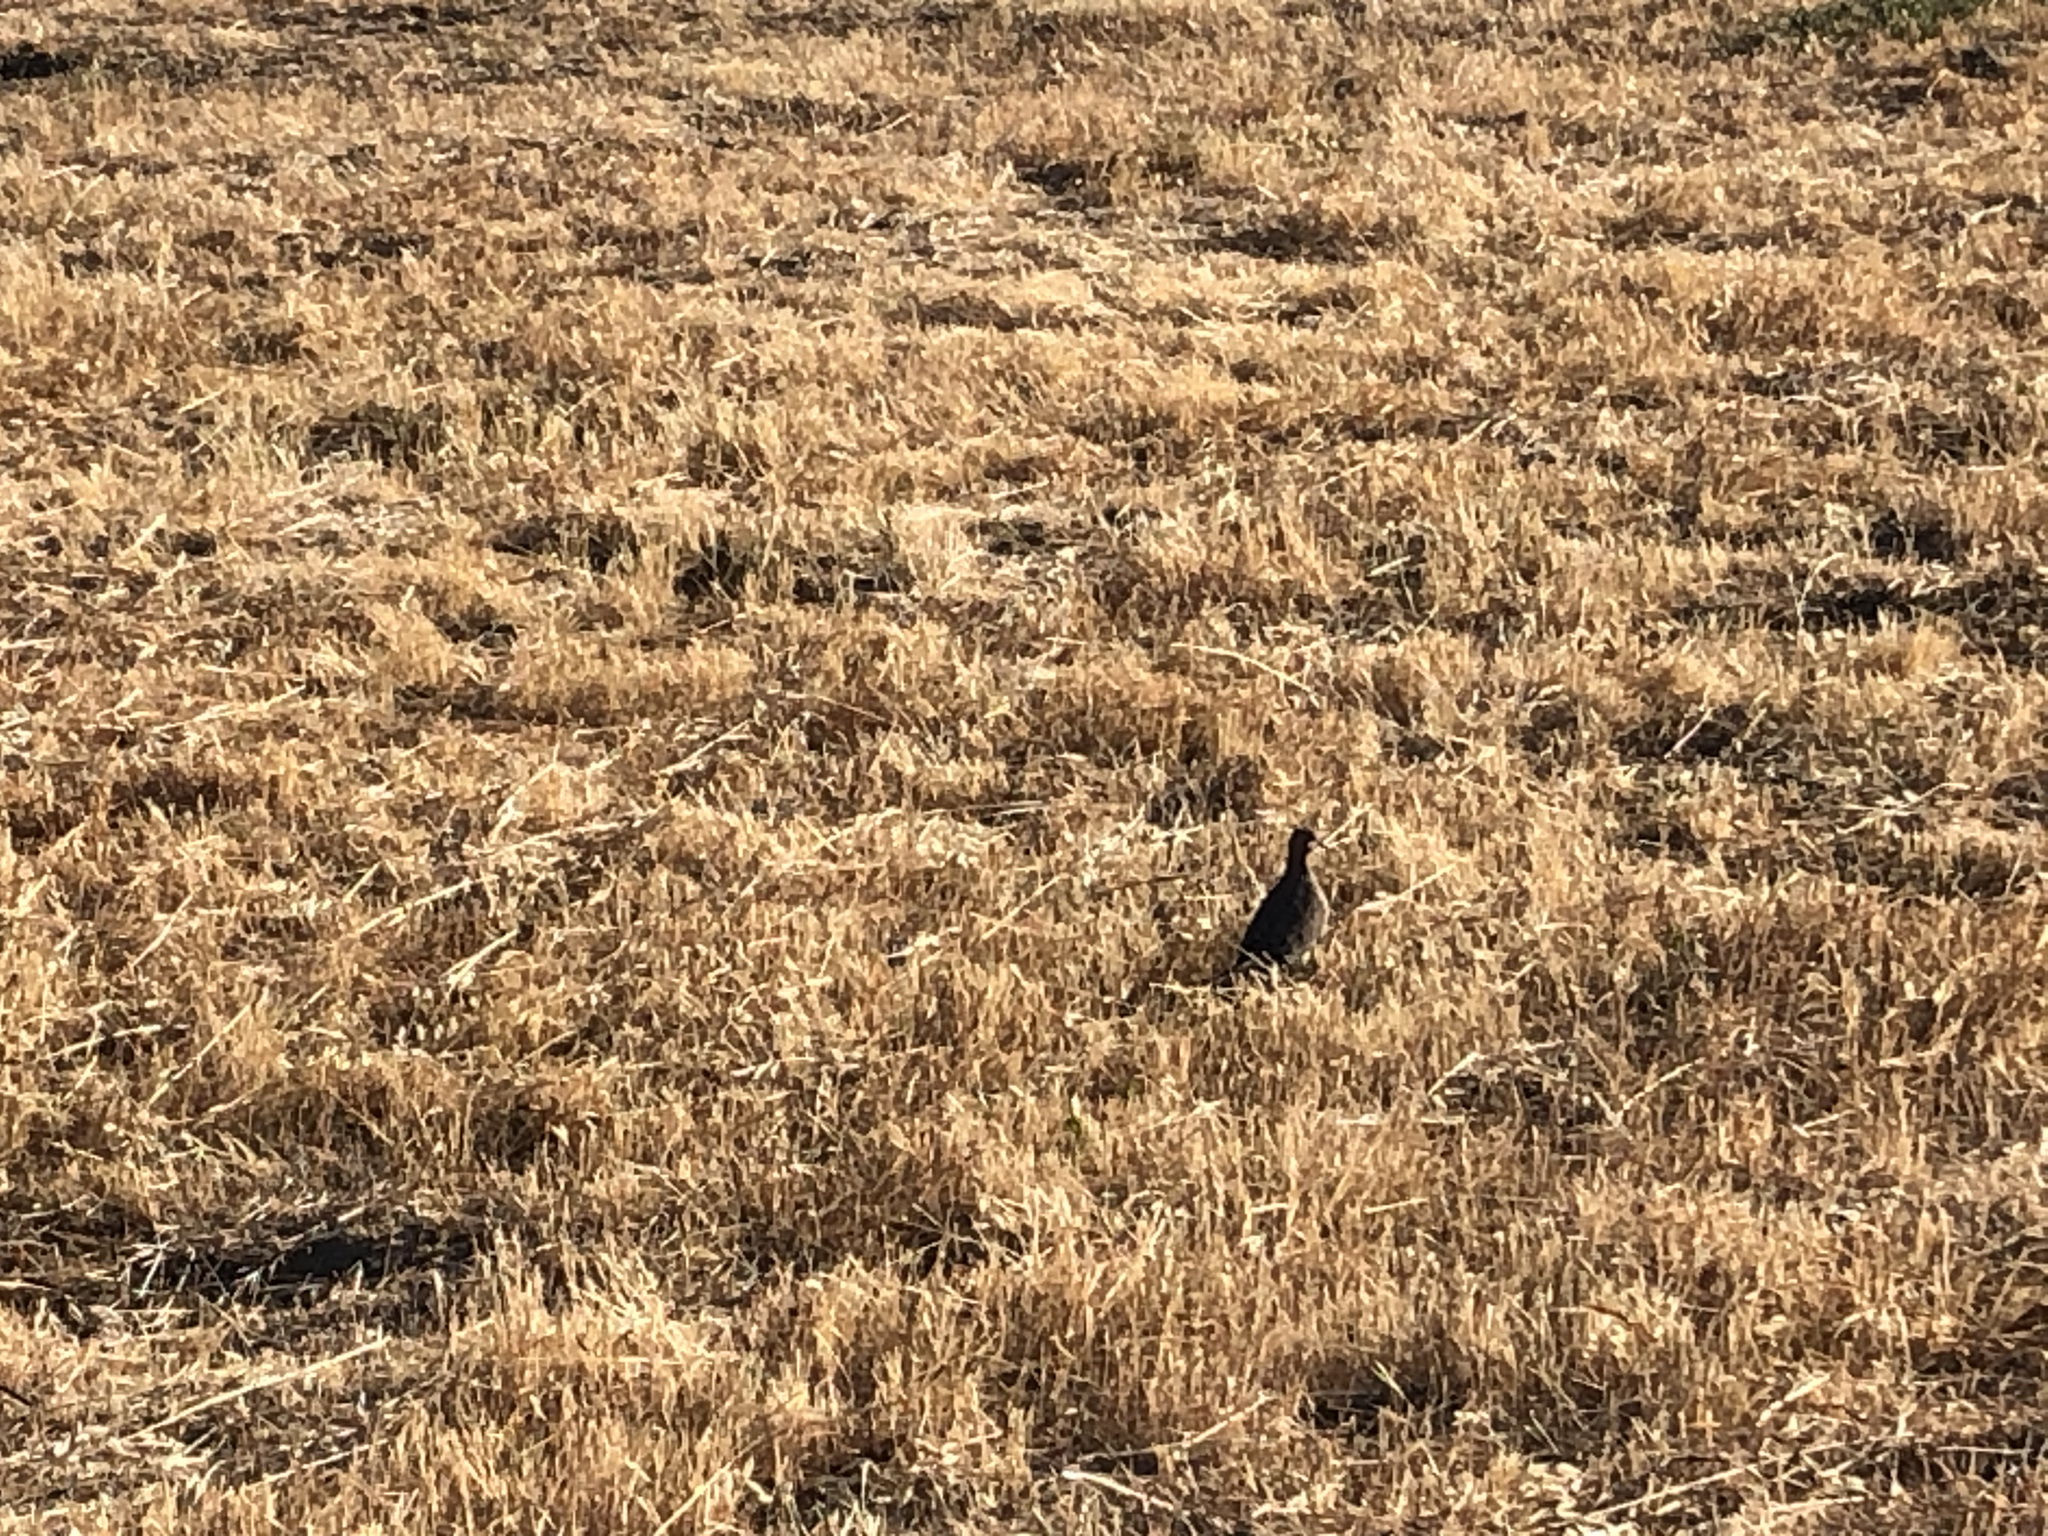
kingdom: Animalia
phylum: Chordata
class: Aves
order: Columbiformes
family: Columbidae
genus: Zenaida
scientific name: Zenaida macroura
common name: Mourning dove
